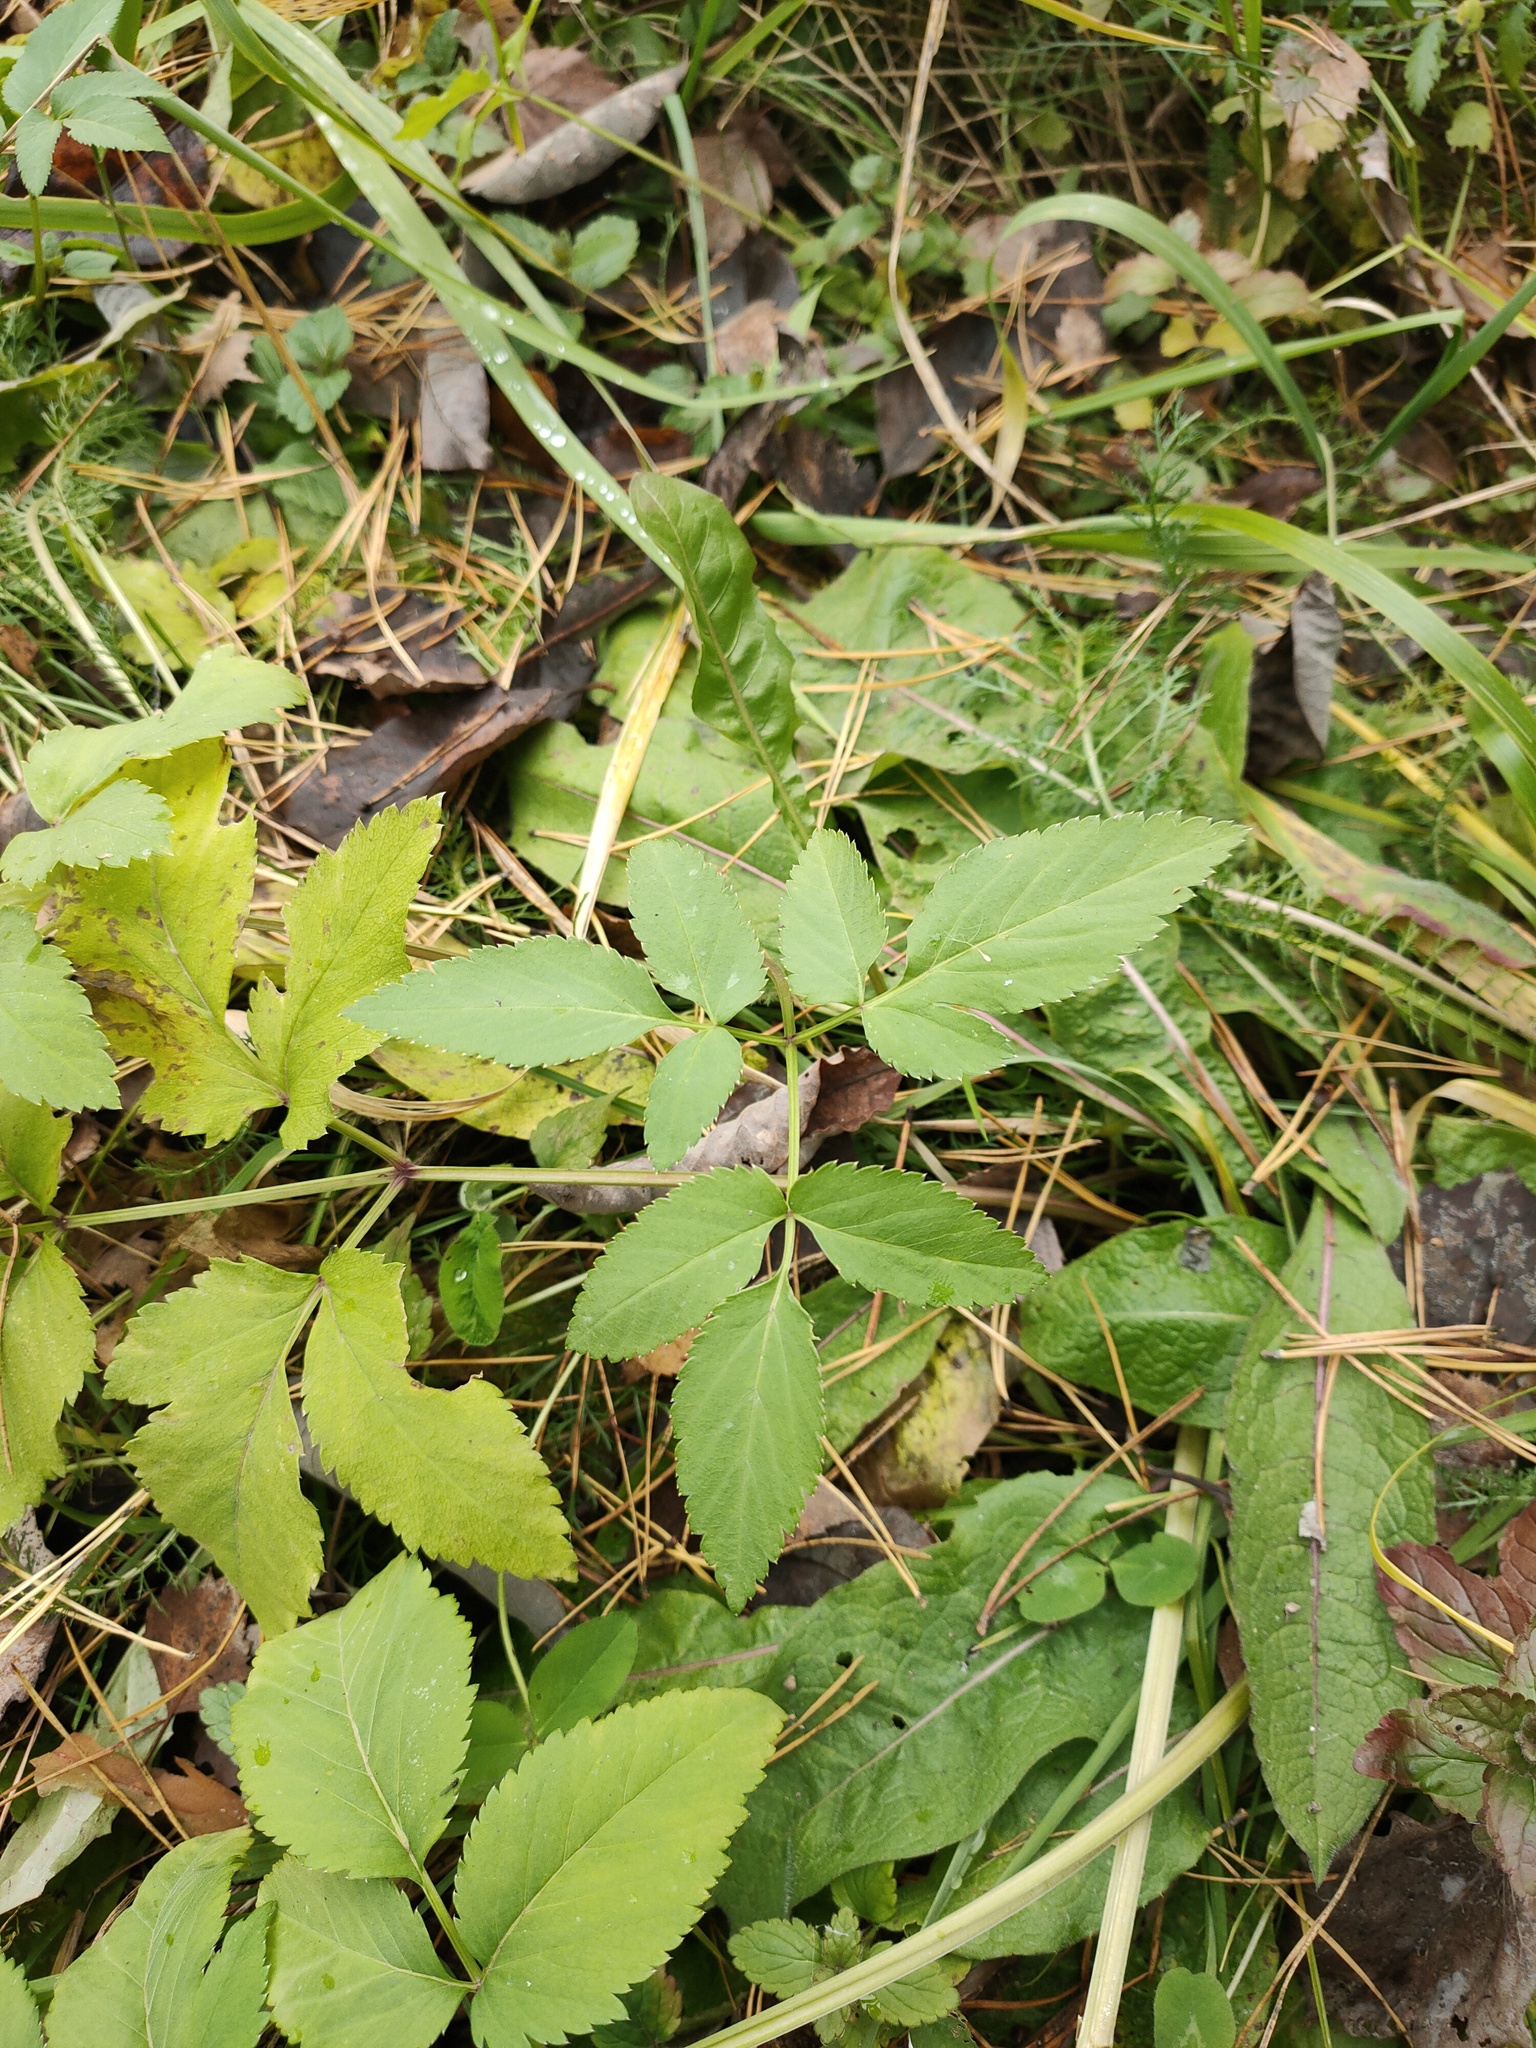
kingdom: Plantae
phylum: Tracheophyta
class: Magnoliopsida
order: Apiales
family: Apiaceae
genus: Aegopodium
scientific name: Aegopodium podagraria
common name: Ground-elder
